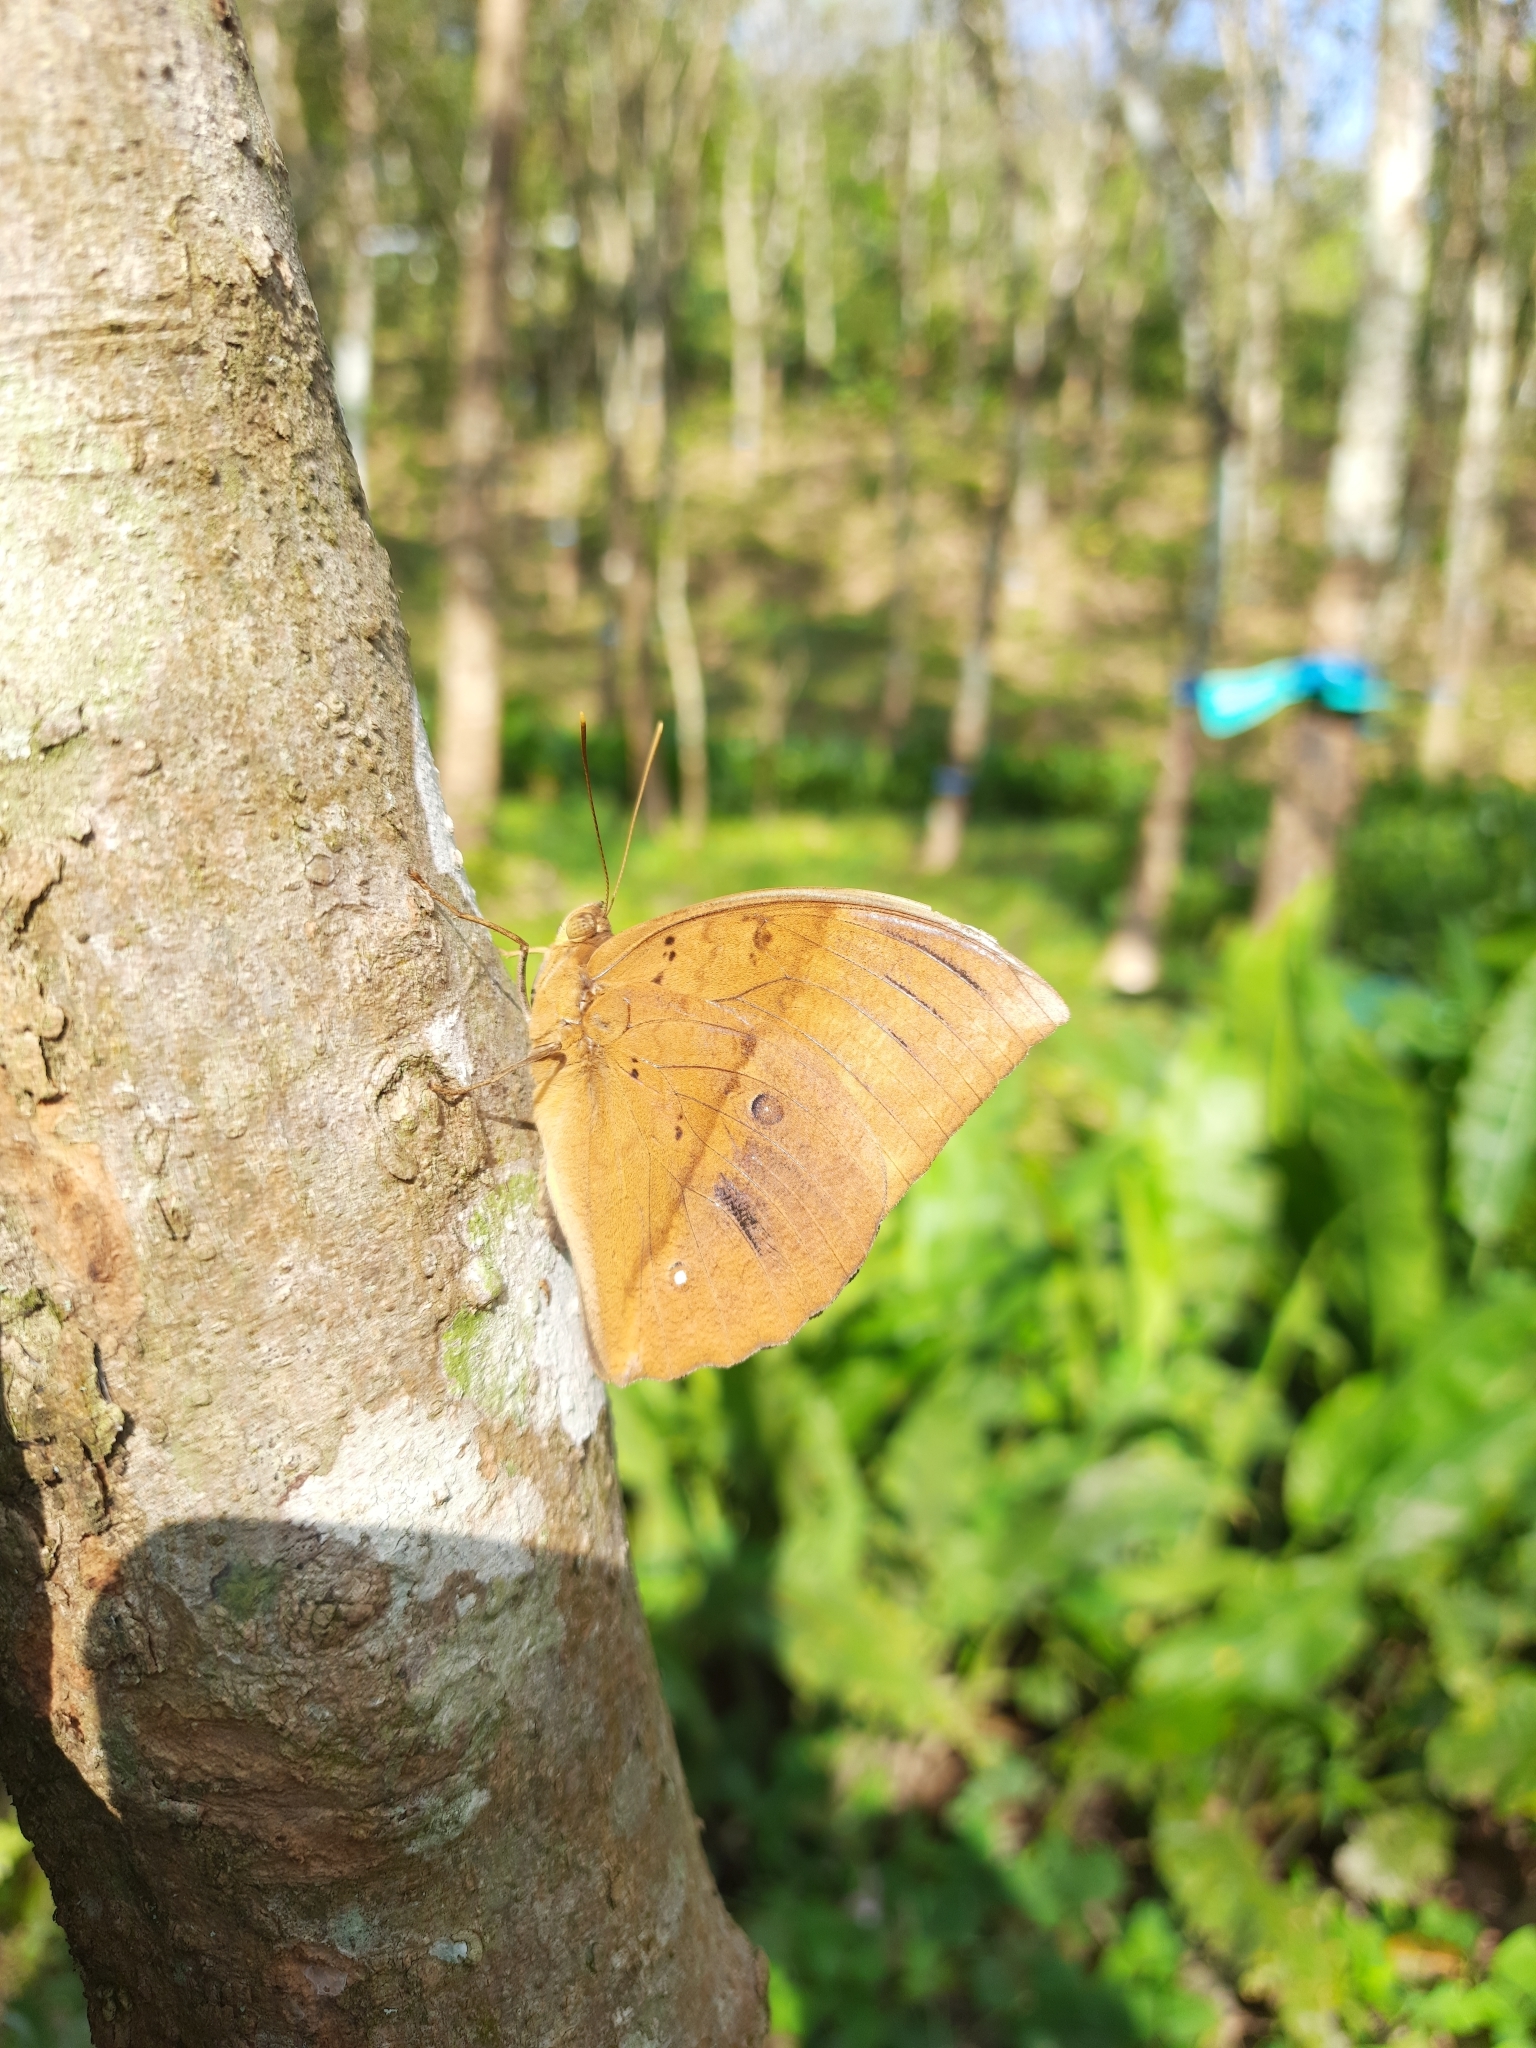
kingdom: Animalia
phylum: Arthropoda
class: Insecta
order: Lepidoptera
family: Nymphalidae
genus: Discophora
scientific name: Discophora lepida
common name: Southern duffer
